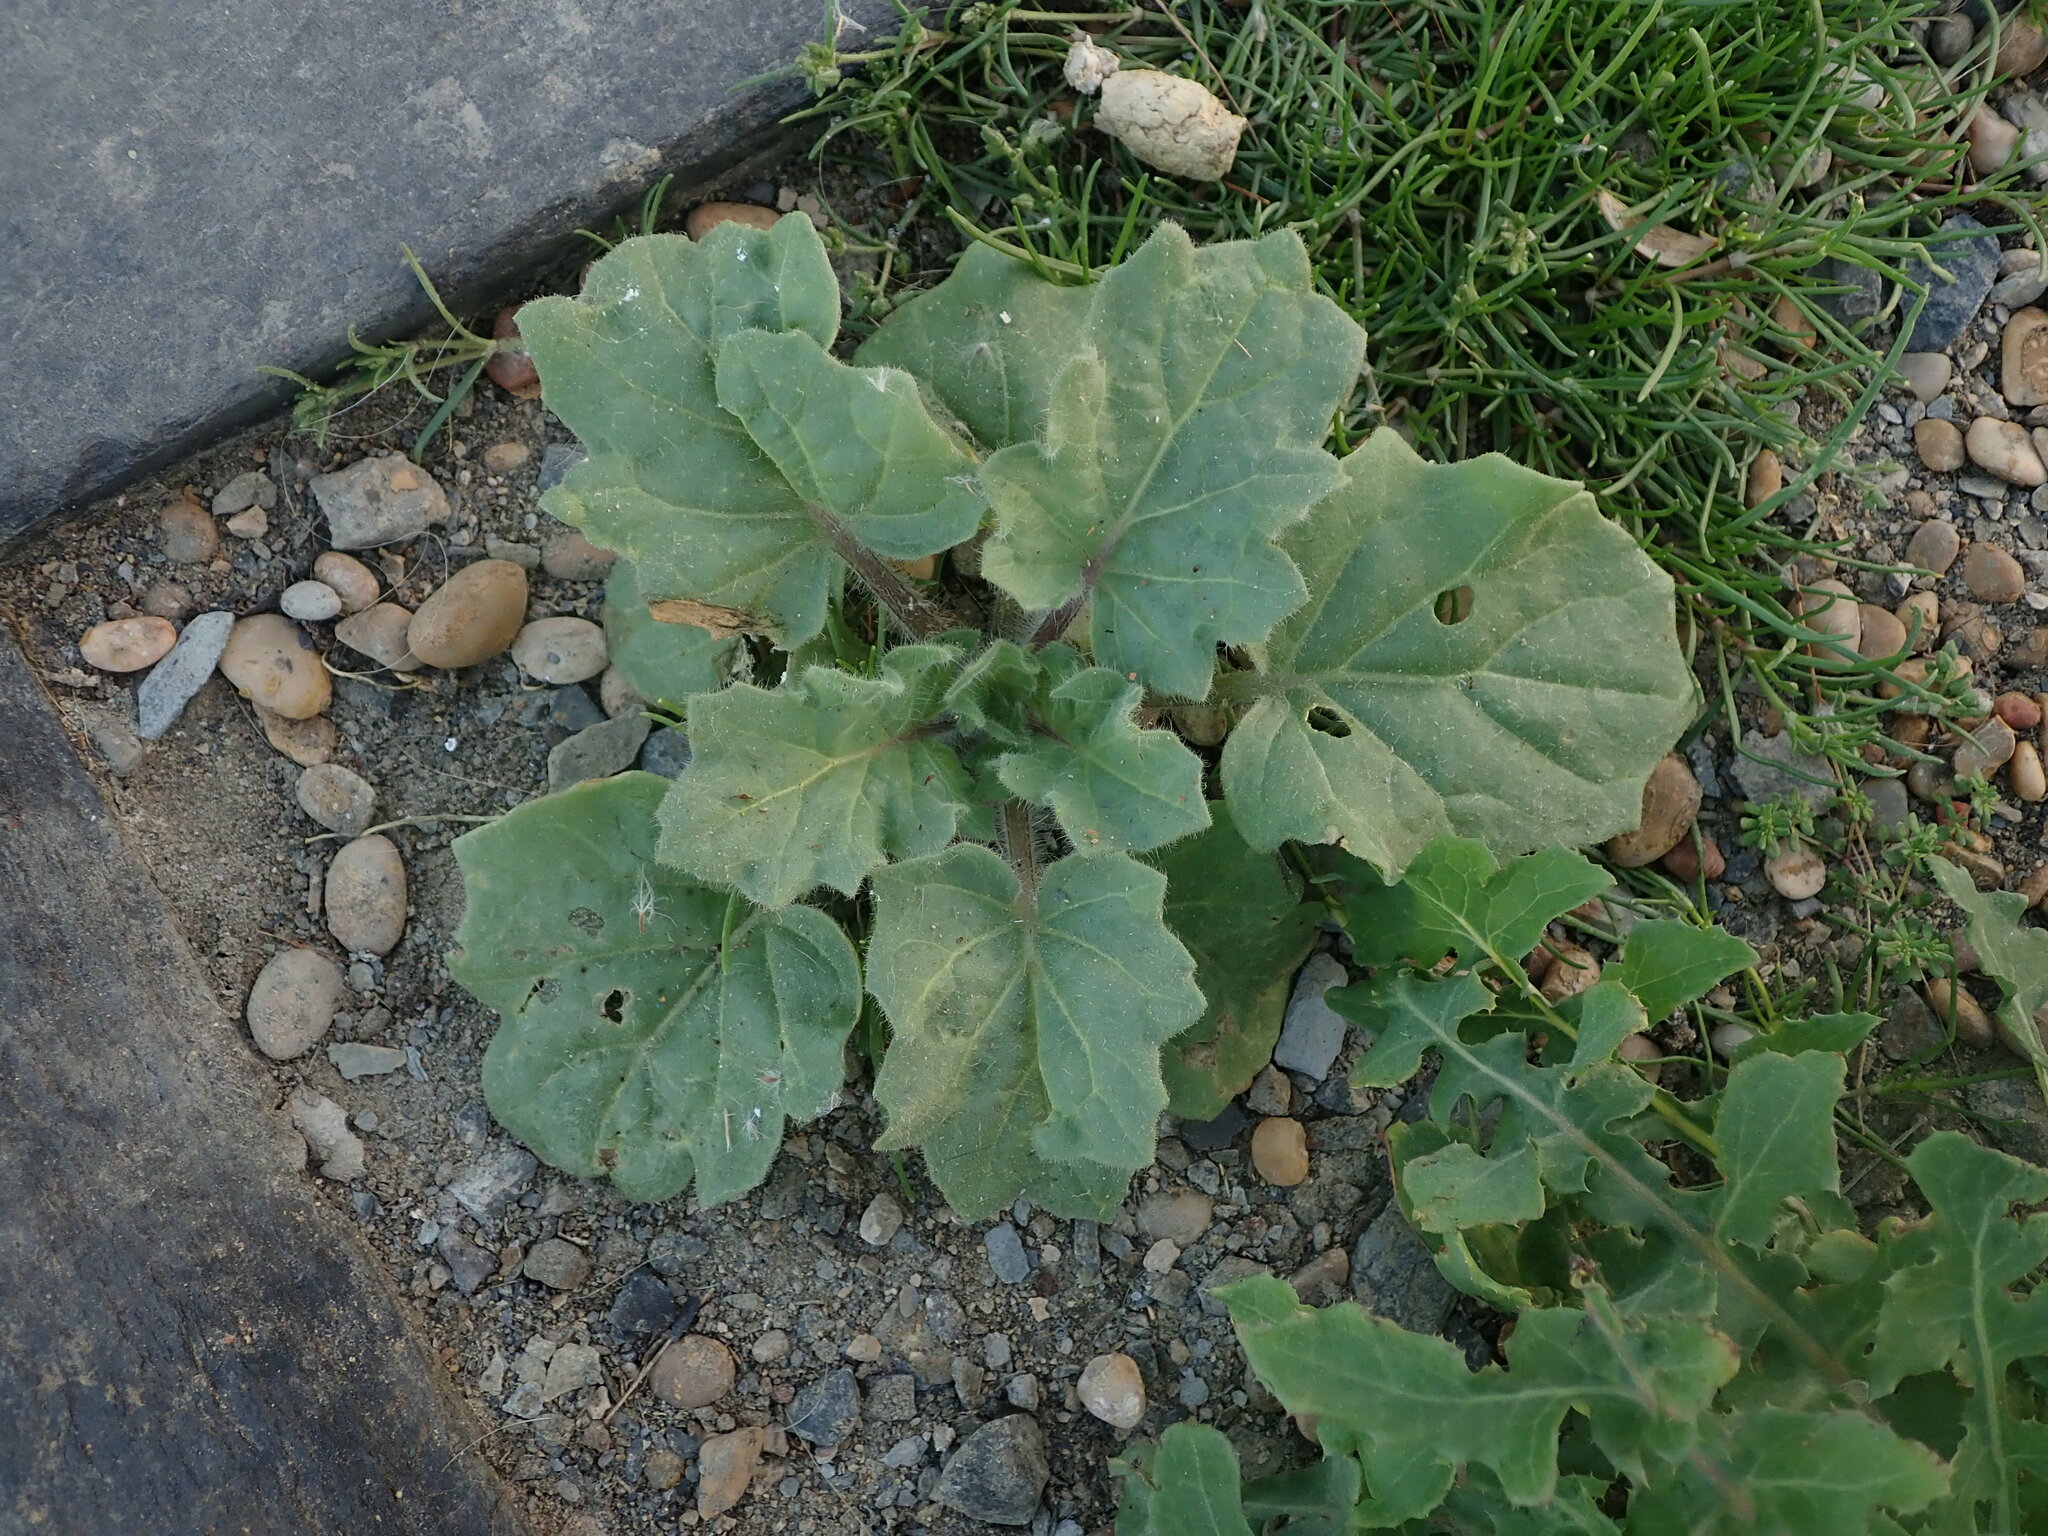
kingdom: Plantae
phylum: Tracheophyta
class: Magnoliopsida
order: Solanales
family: Solanaceae
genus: Hyoscyamus
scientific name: Hyoscyamus albus
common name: White henbane
